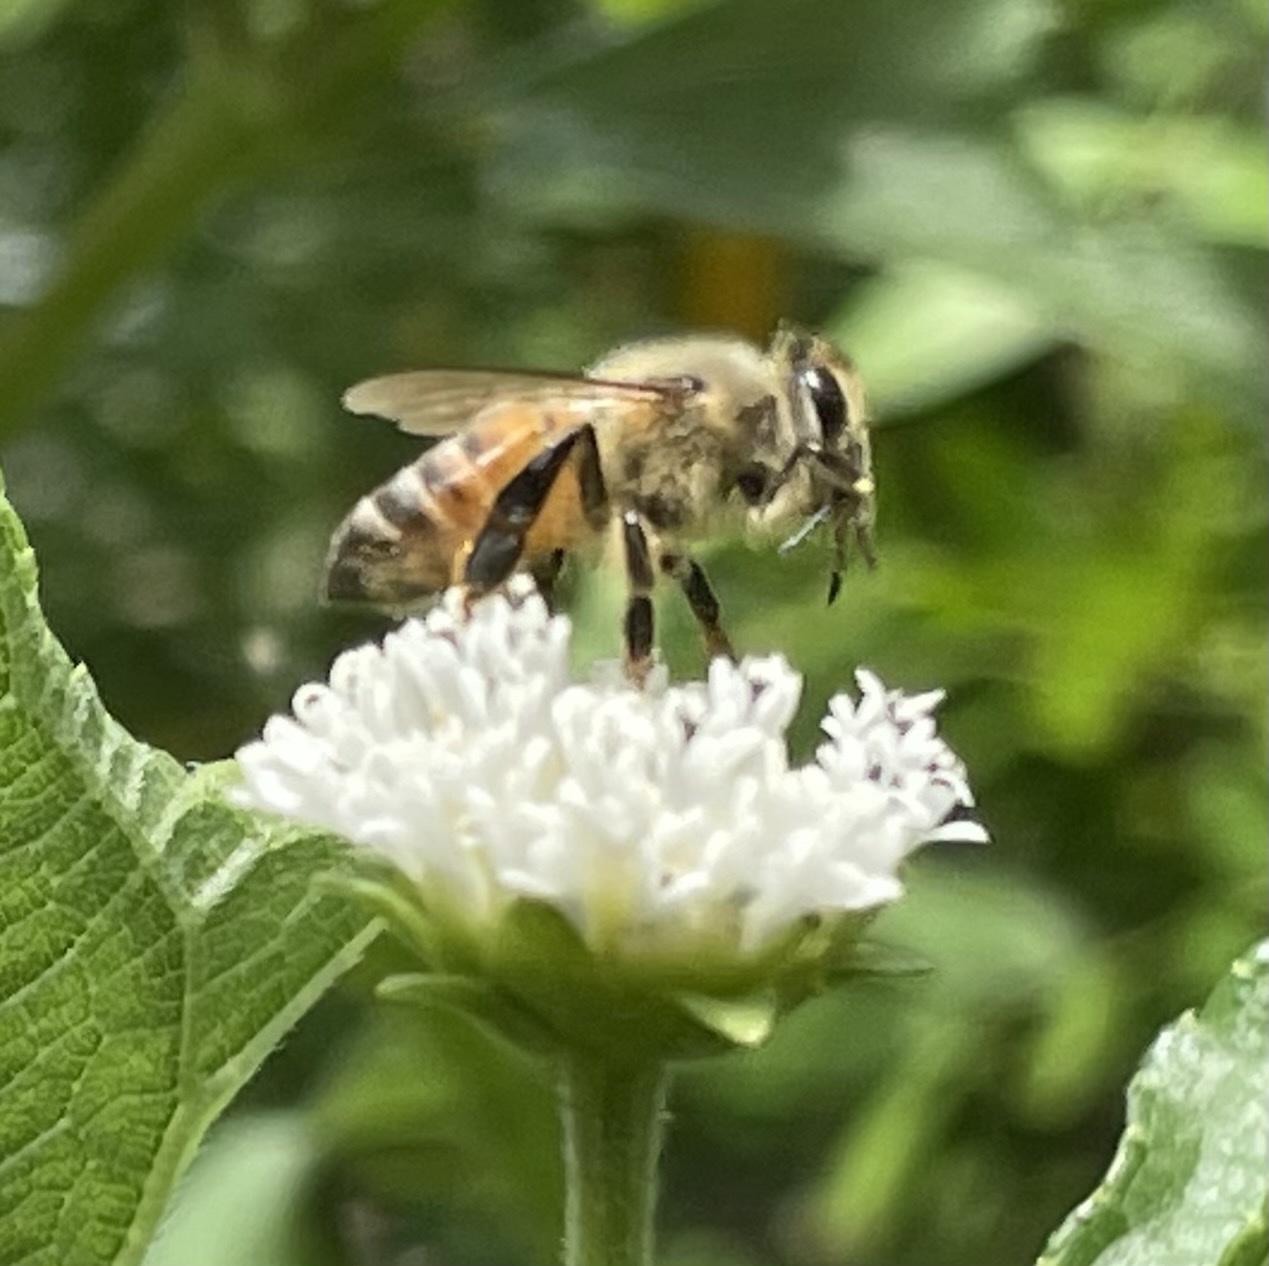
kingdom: Animalia
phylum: Arthropoda
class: Insecta
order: Hymenoptera
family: Apidae
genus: Apis
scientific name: Apis mellifera
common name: Honey bee
